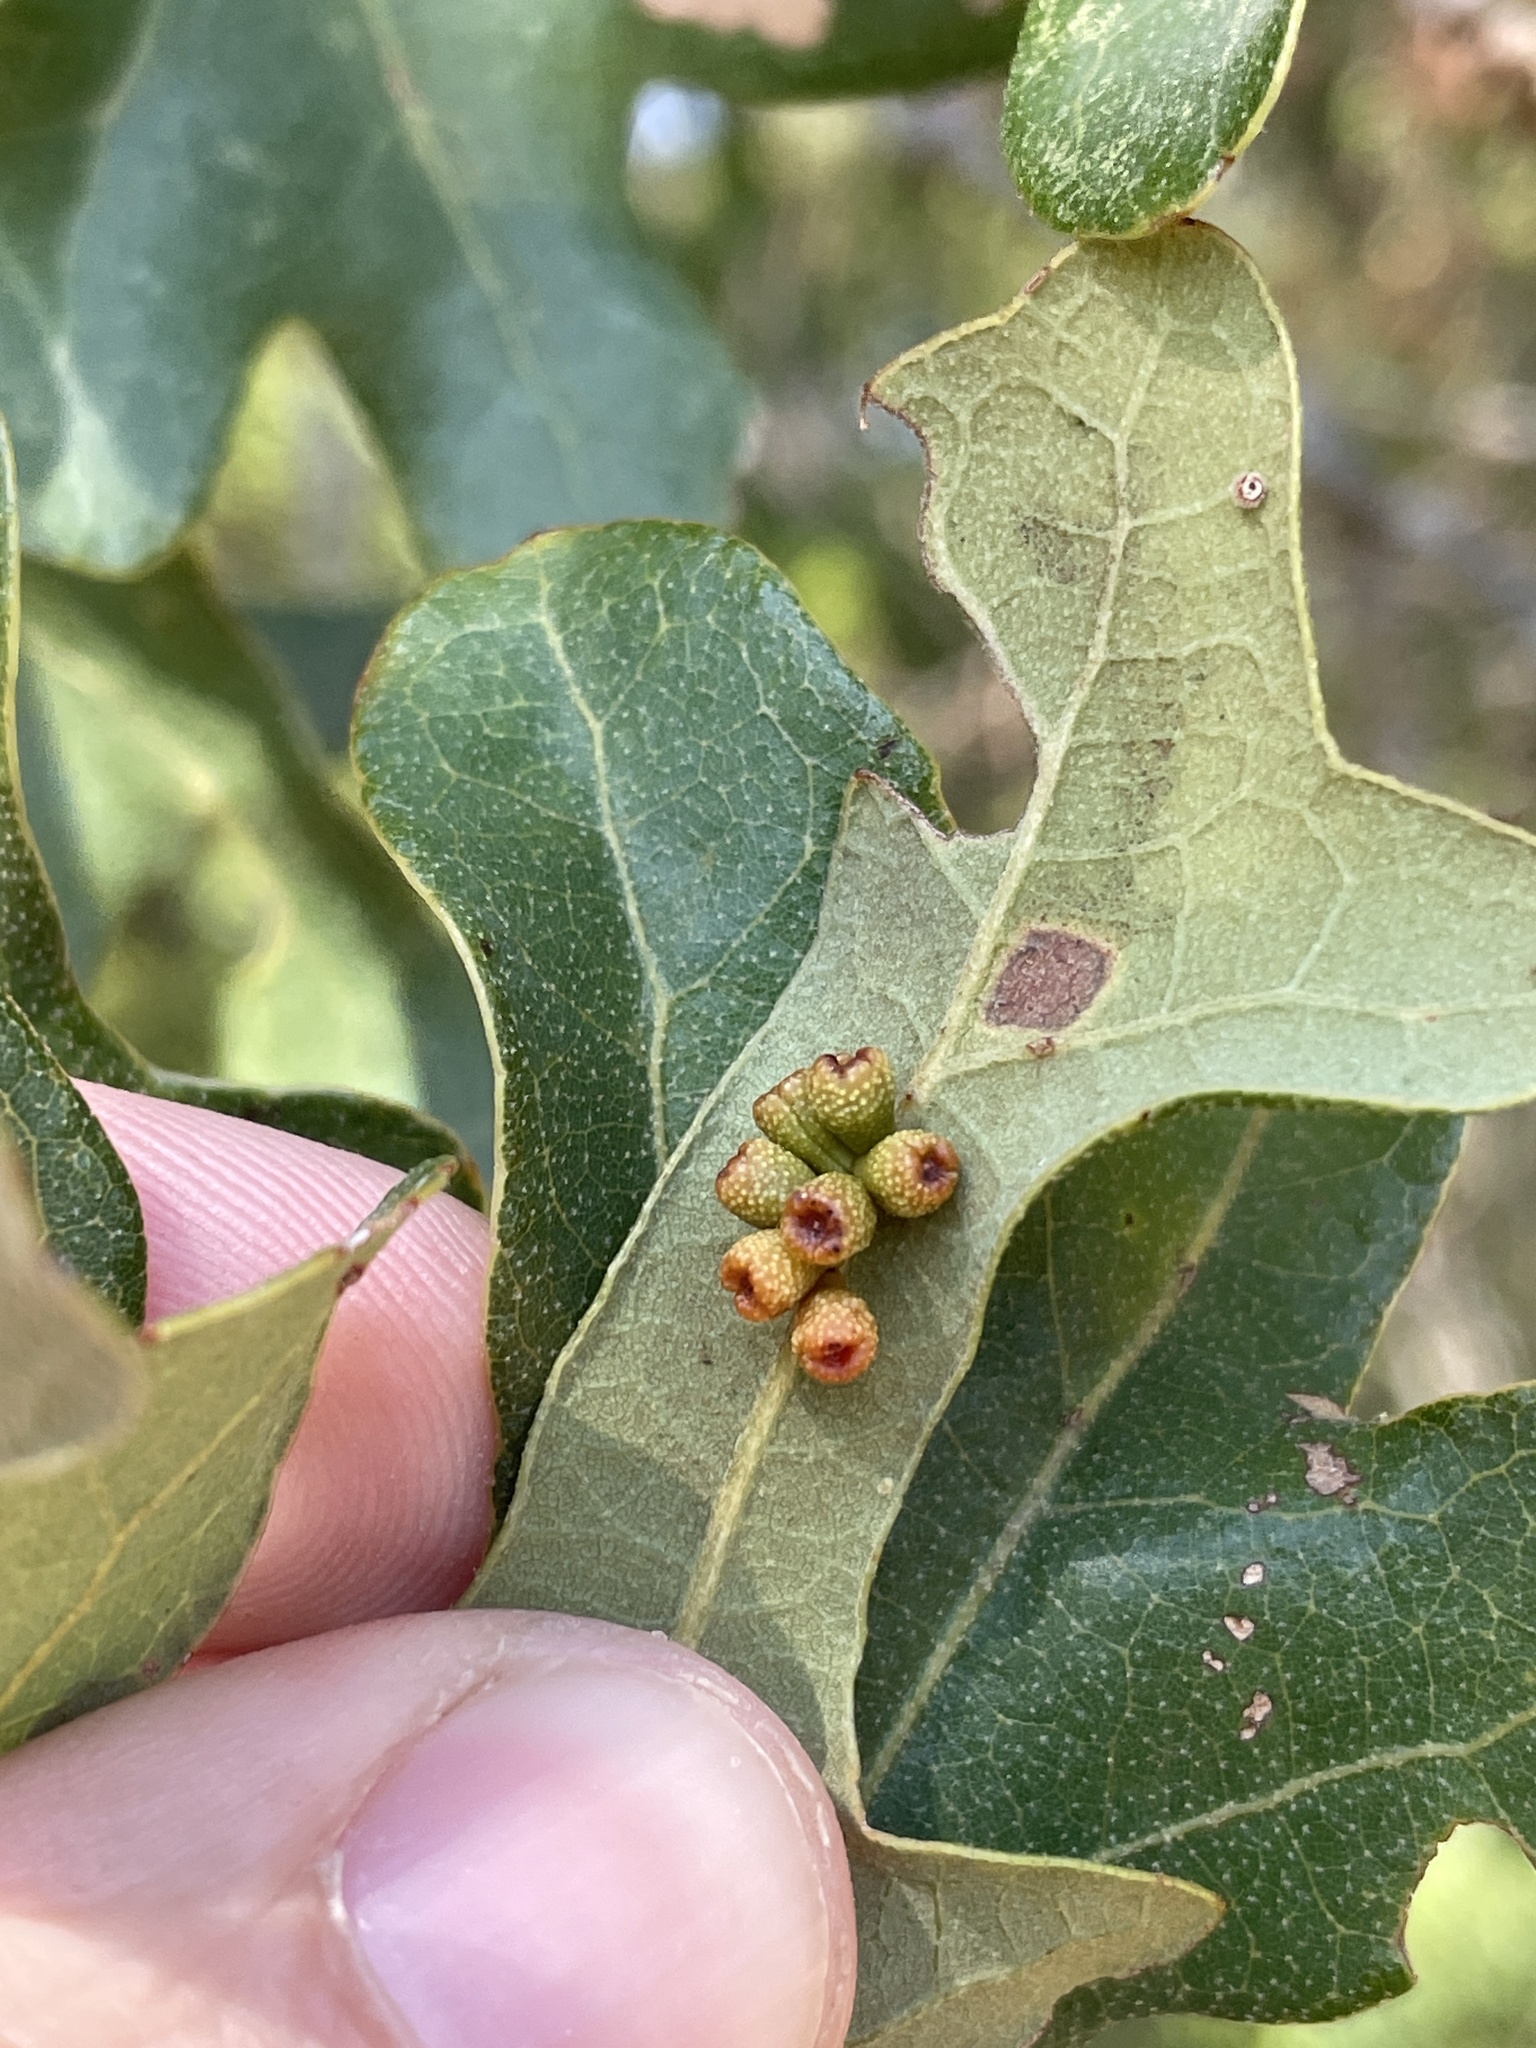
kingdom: Animalia
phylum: Arthropoda
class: Insecta
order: Hymenoptera
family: Cynipidae
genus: Andricus
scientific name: Andricus lustrans
